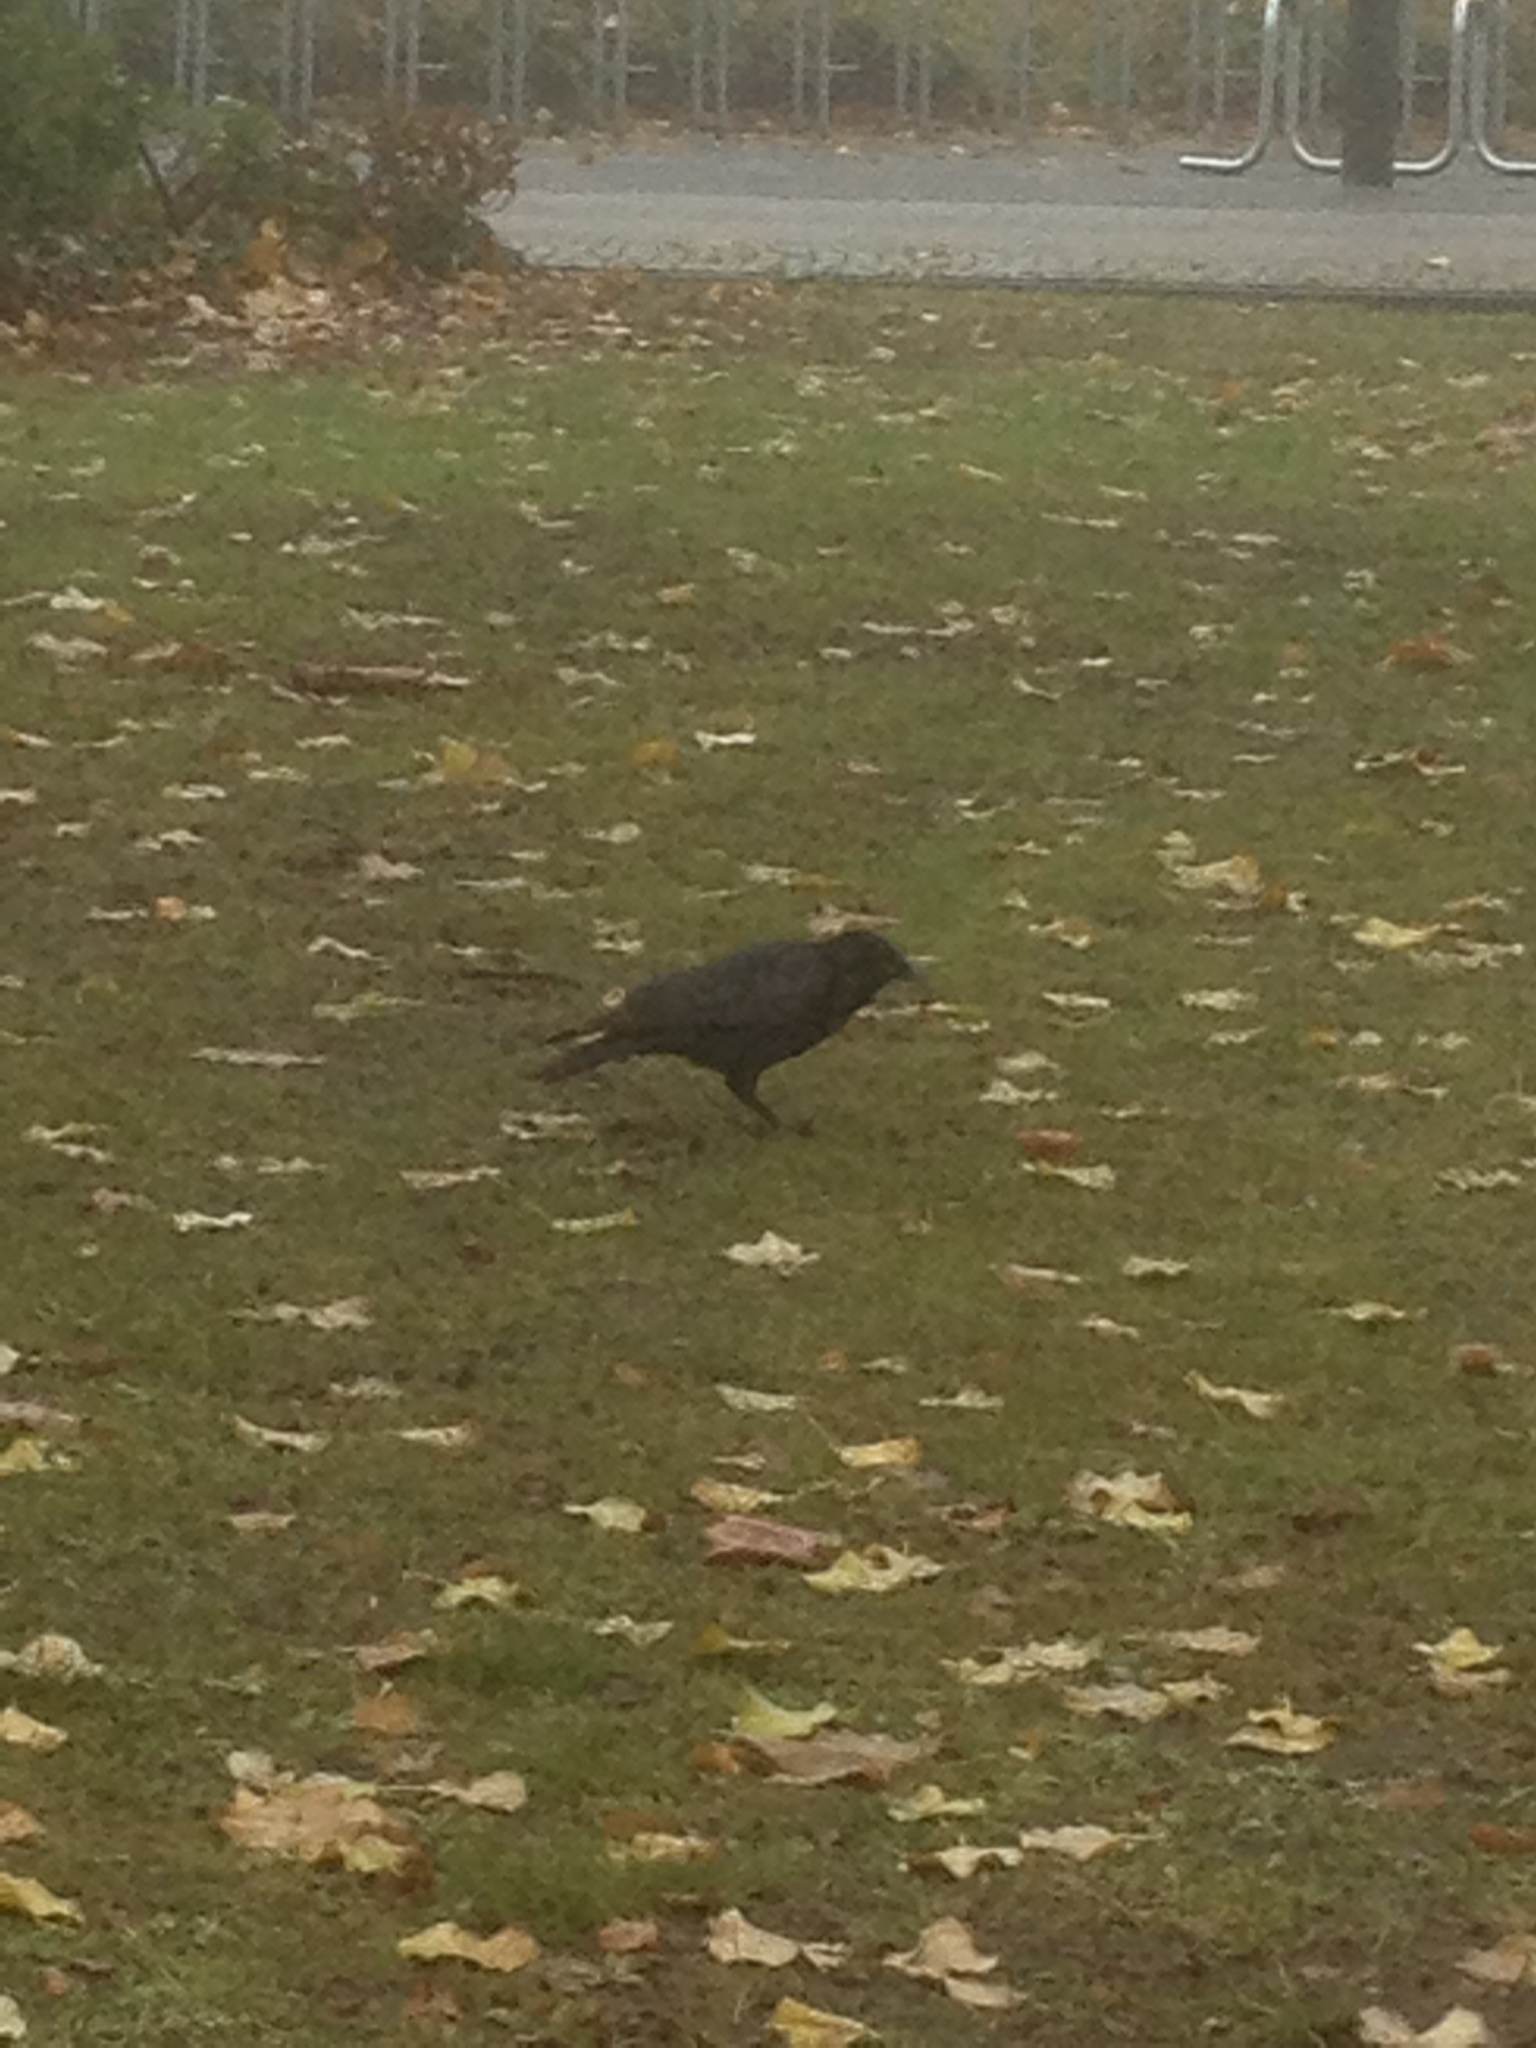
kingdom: Animalia
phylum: Chordata
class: Aves
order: Passeriformes
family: Corvidae
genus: Corvus
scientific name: Corvus corone
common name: Carrion crow
